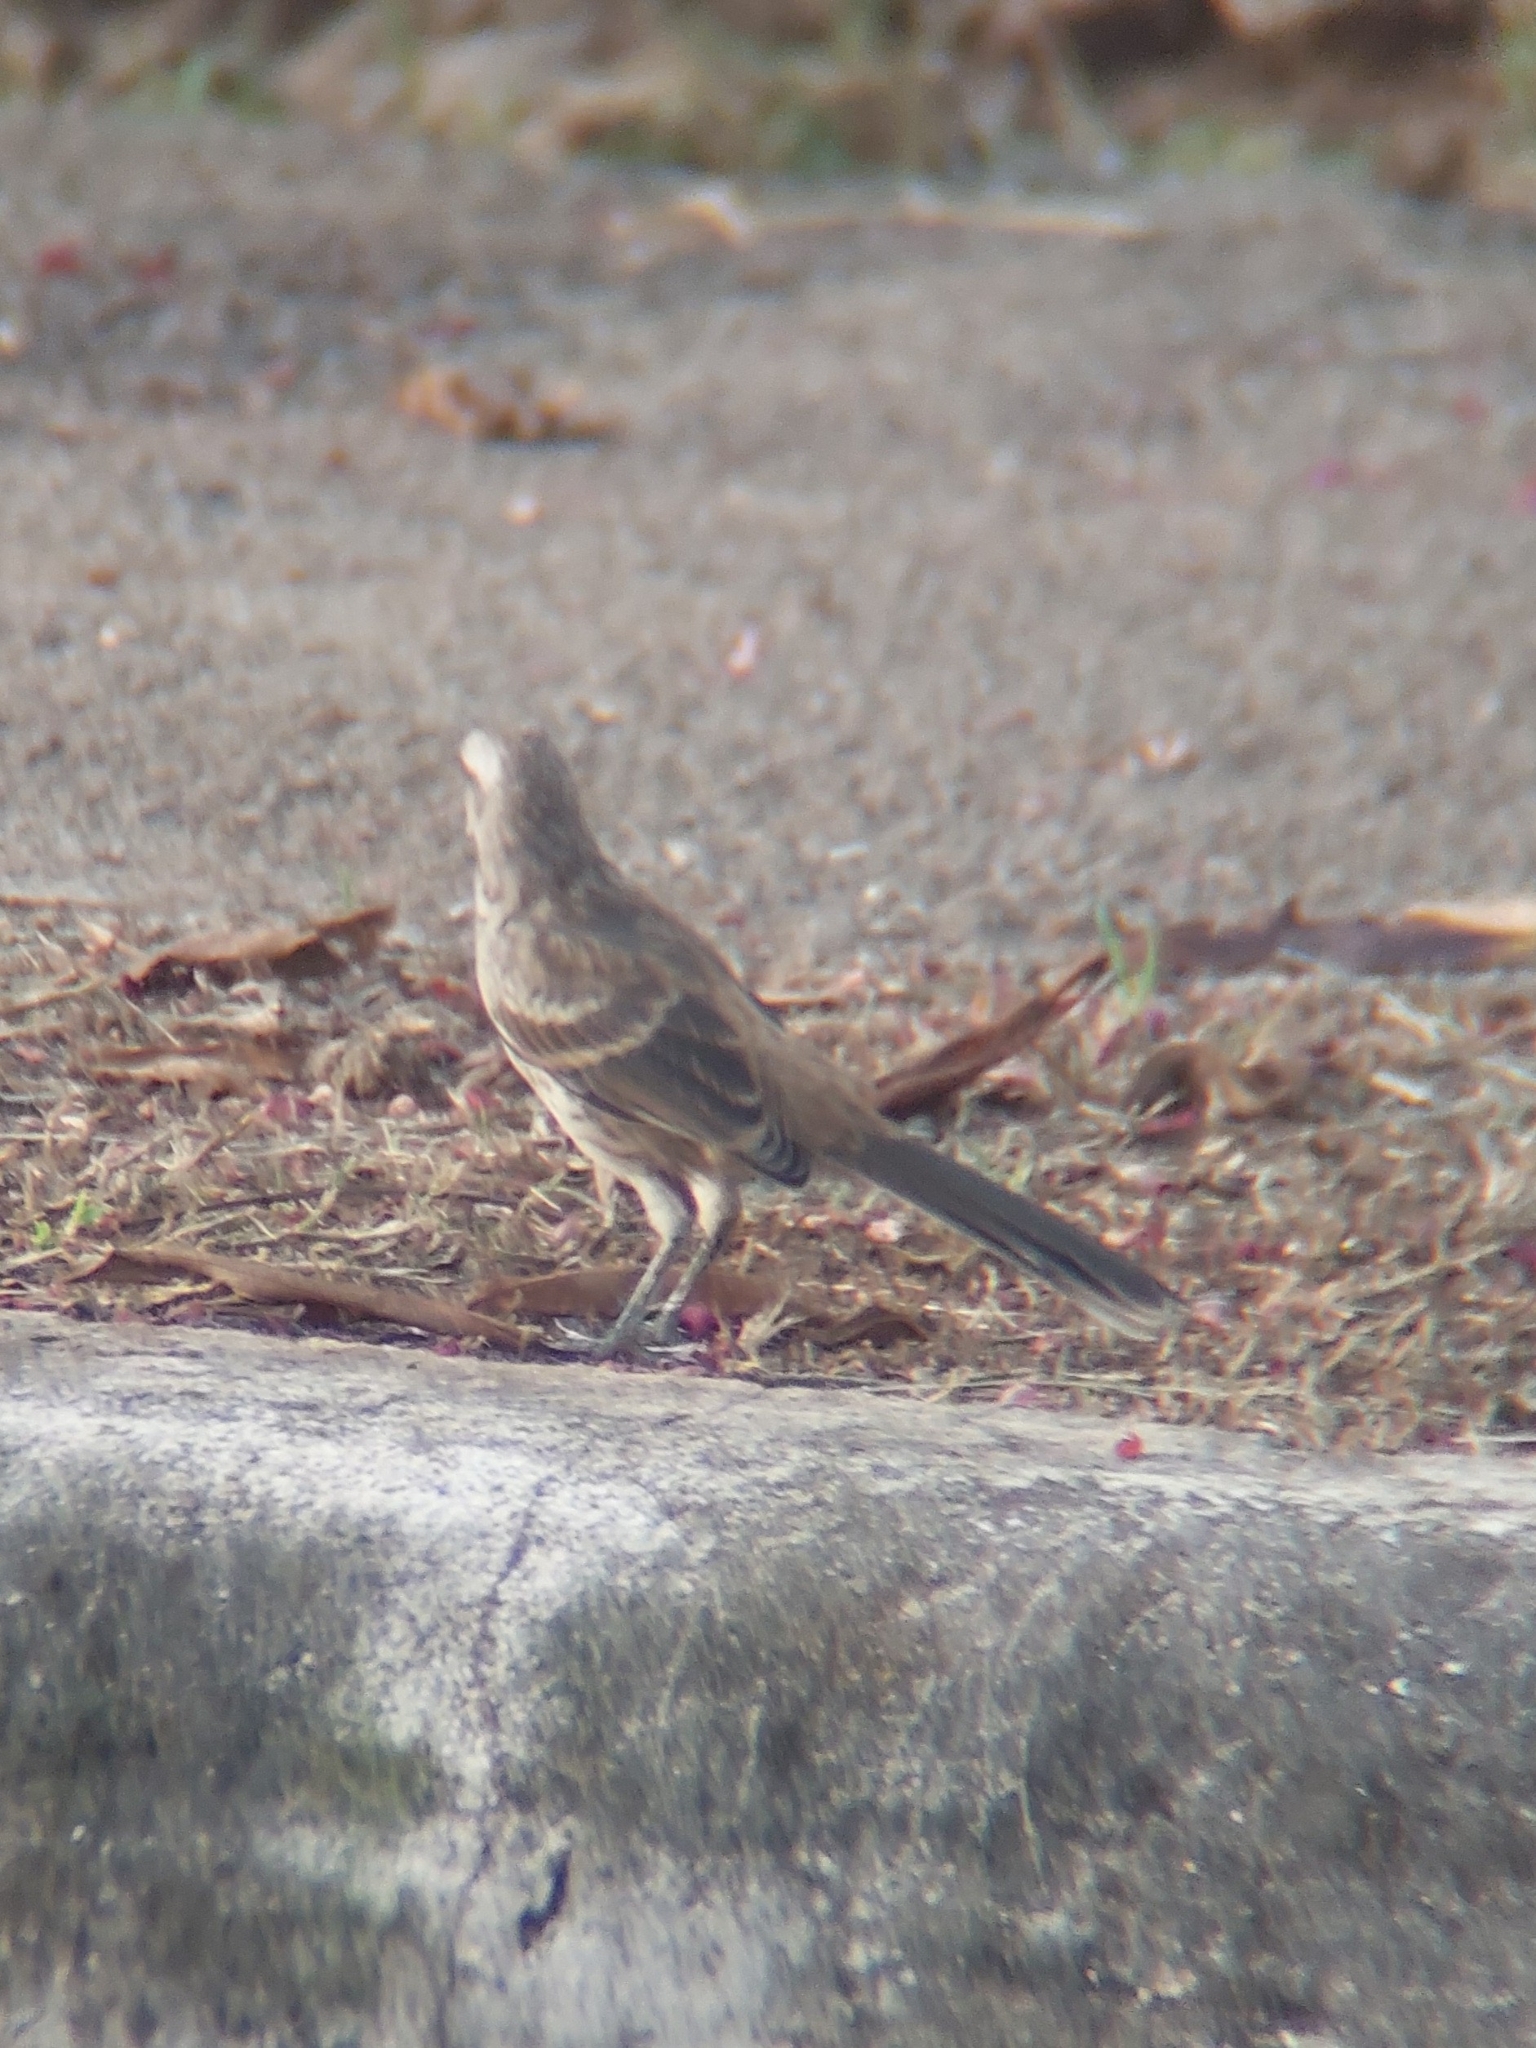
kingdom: Animalia
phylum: Chordata
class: Aves
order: Passeriformes
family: Mimidae
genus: Mimus
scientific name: Mimus saturninus
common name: Chalk-browed mockingbird
